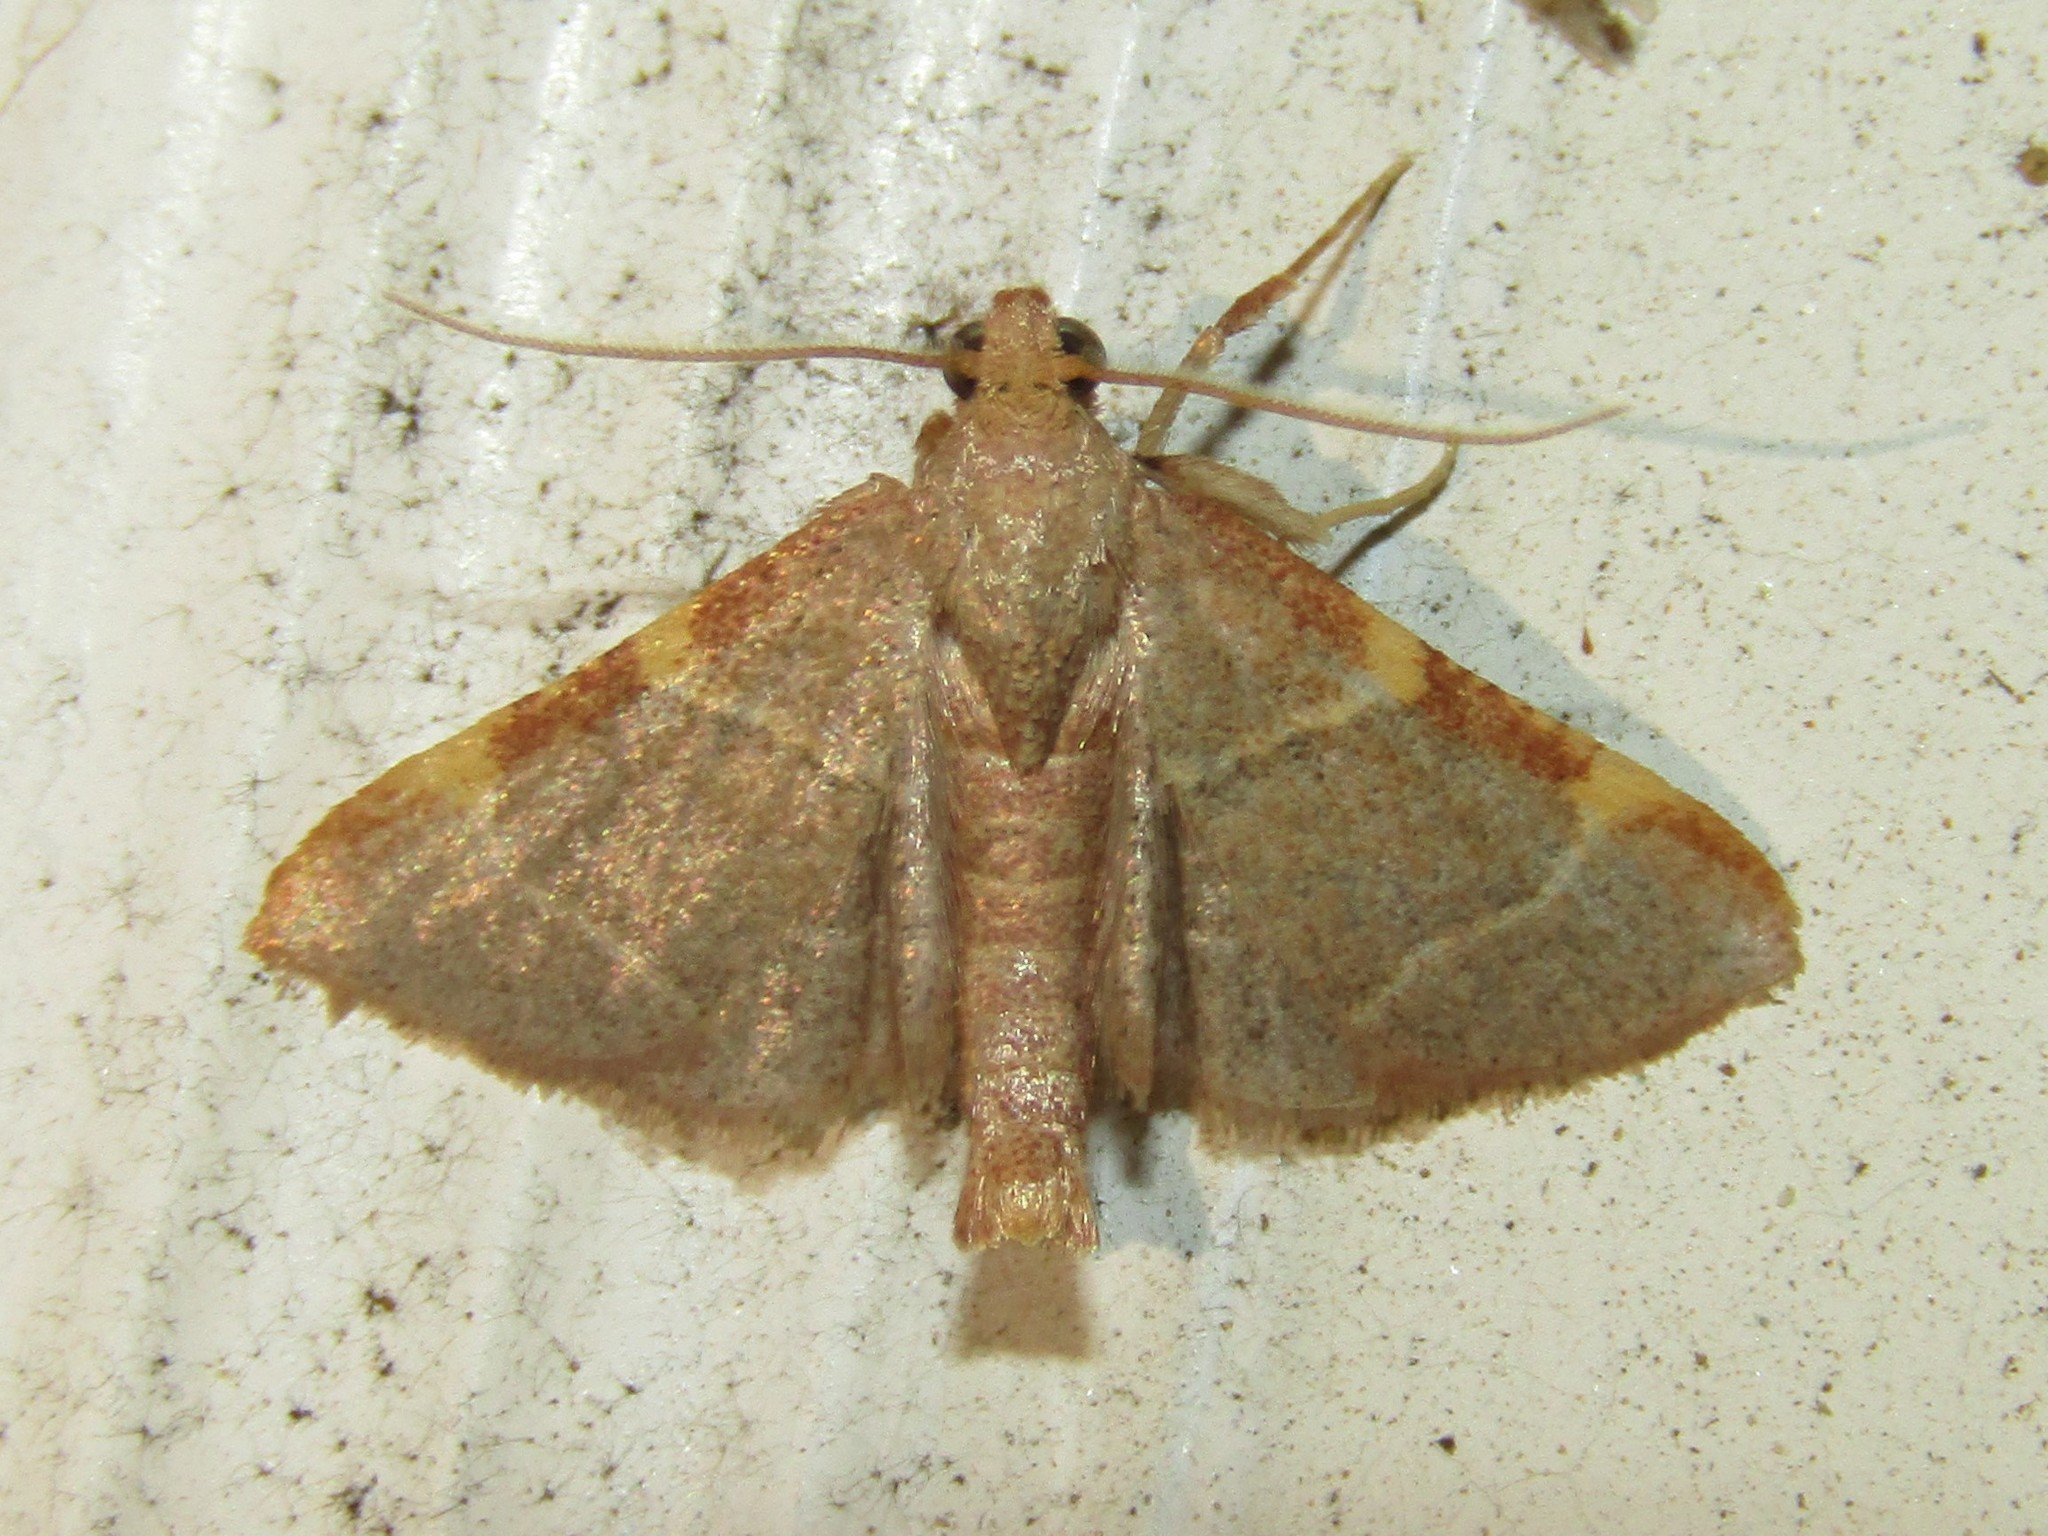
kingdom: Animalia
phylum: Arthropoda
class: Insecta
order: Lepidoptera
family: Pyralidae
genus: Hypsopygia
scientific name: Hypsopygia binodulalis
